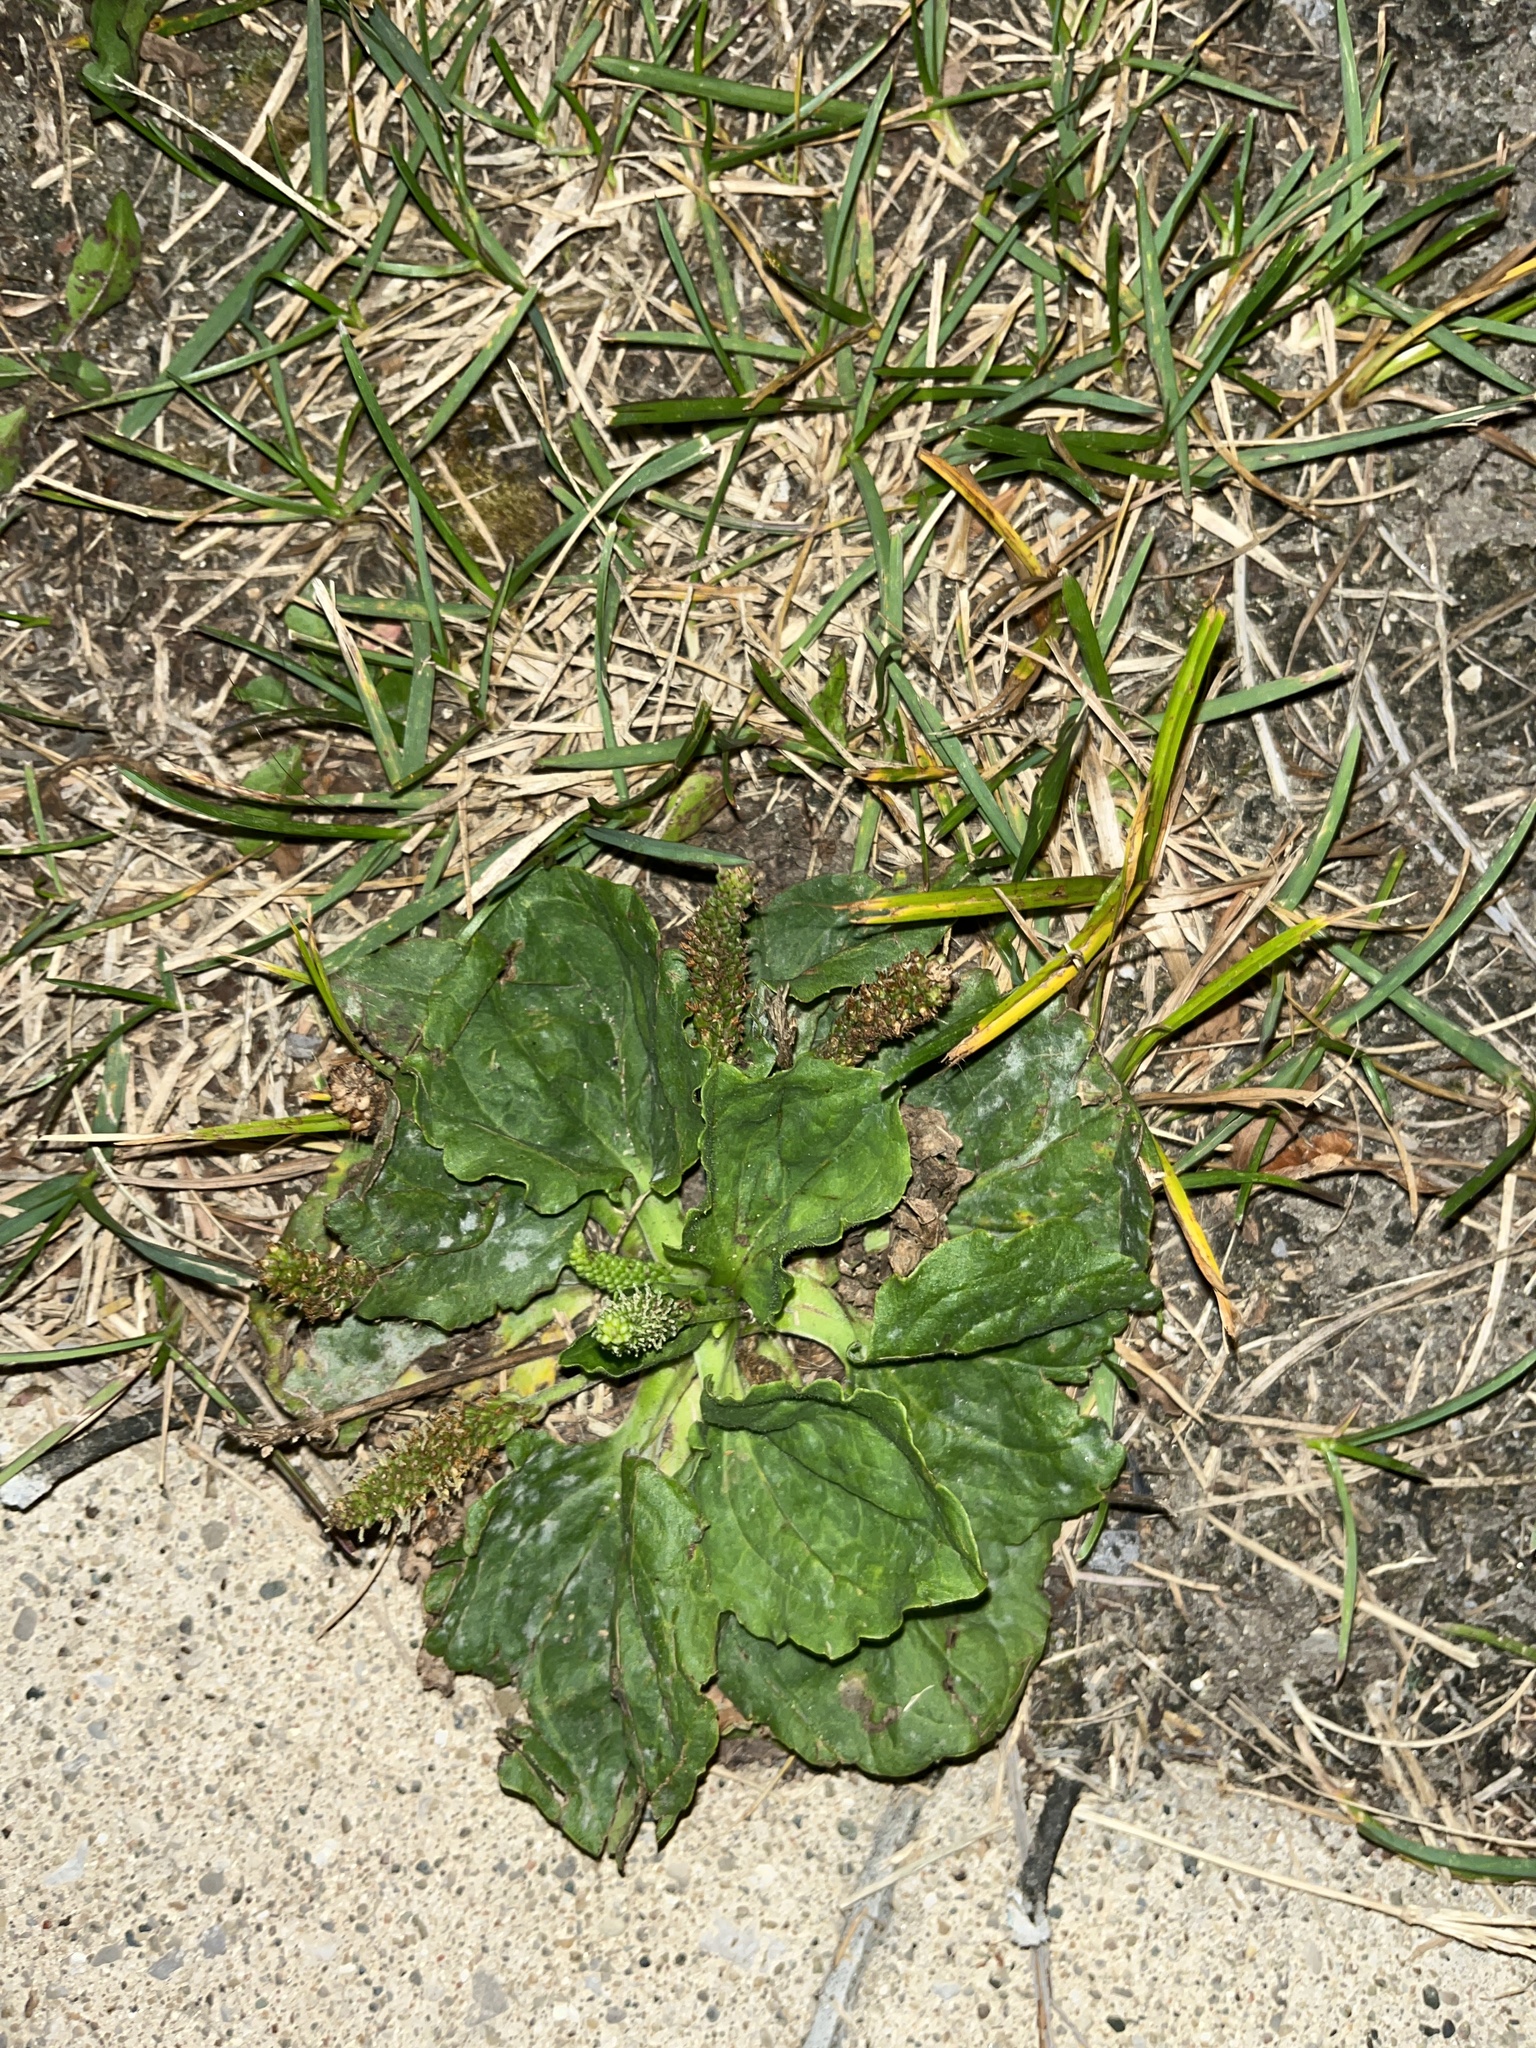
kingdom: Plantae
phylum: Tracheophyta
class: Magnoliopsida
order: Lamiales
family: Plantaginaceae
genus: Plantago
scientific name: Plantago major
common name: Common plantain
